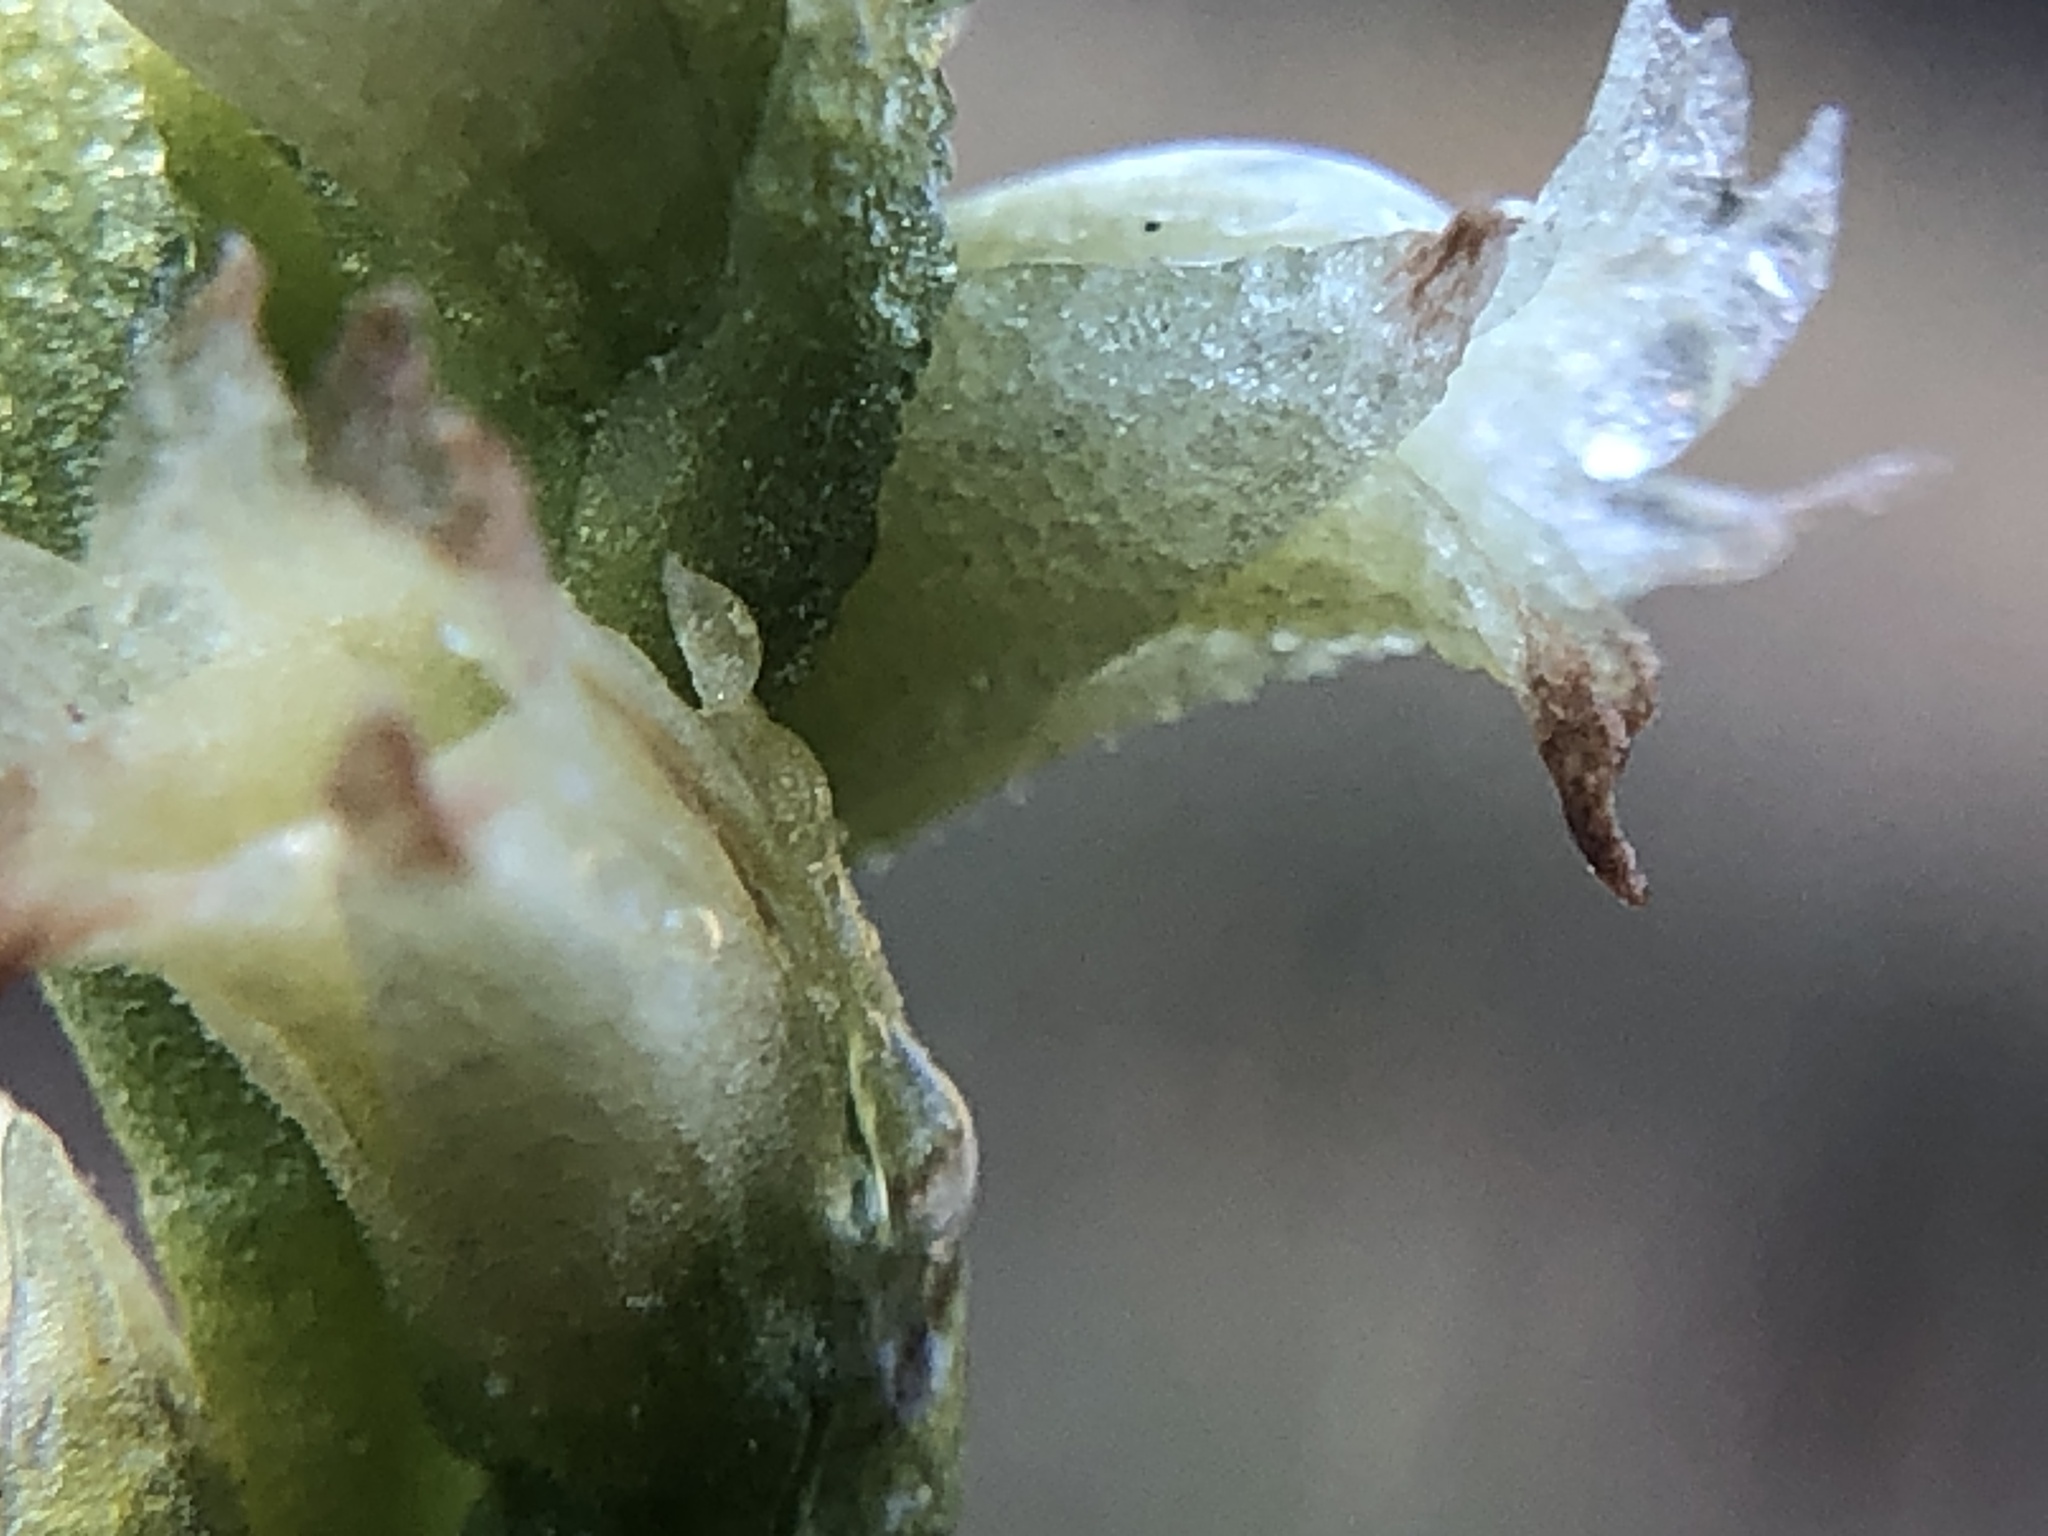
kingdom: Plantae
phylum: Tracheophyta
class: Liliopsida
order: Asparagales
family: Orchidaceae
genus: Spiranthes
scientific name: Spiranthes stellata
